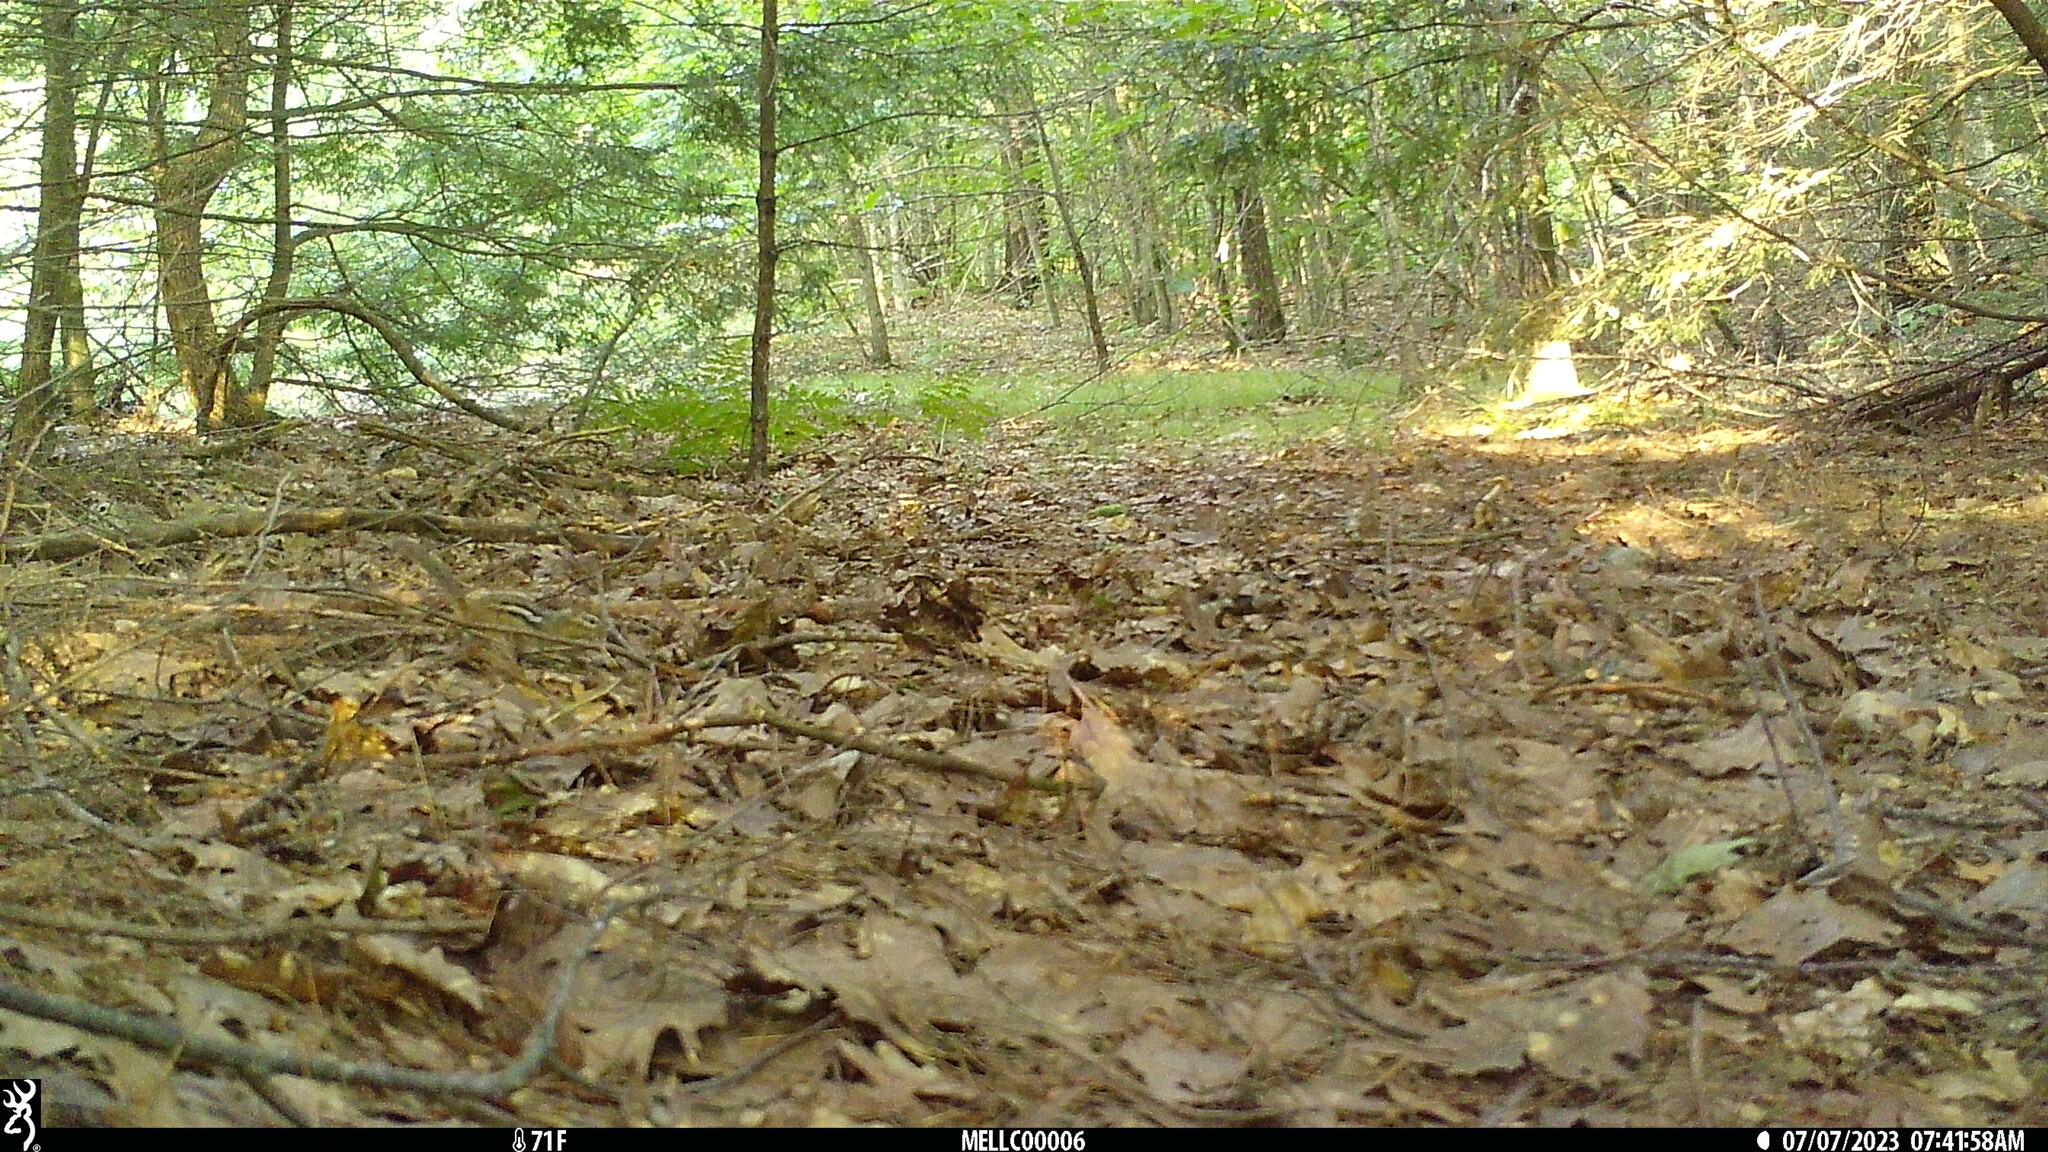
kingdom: Animalia
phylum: Chordata
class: Mammalia
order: Rodentia
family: Sciuridae
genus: Tamias
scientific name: Tamias striatus
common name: Eastern chipmunk
